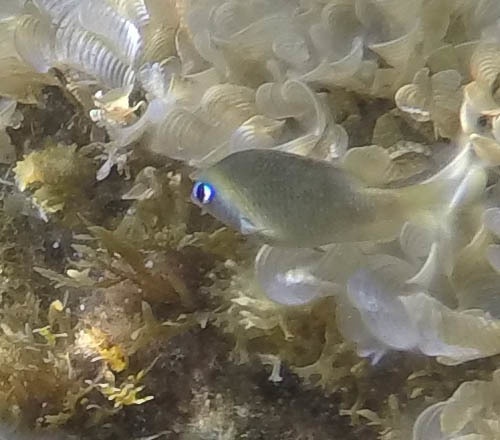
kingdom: Animalia
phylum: Chordata
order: Perciformes
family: Pomacentridae
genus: Plectroglyphidodon
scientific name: Plectroglyphidodon imparipennis
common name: Brighteye damsel
